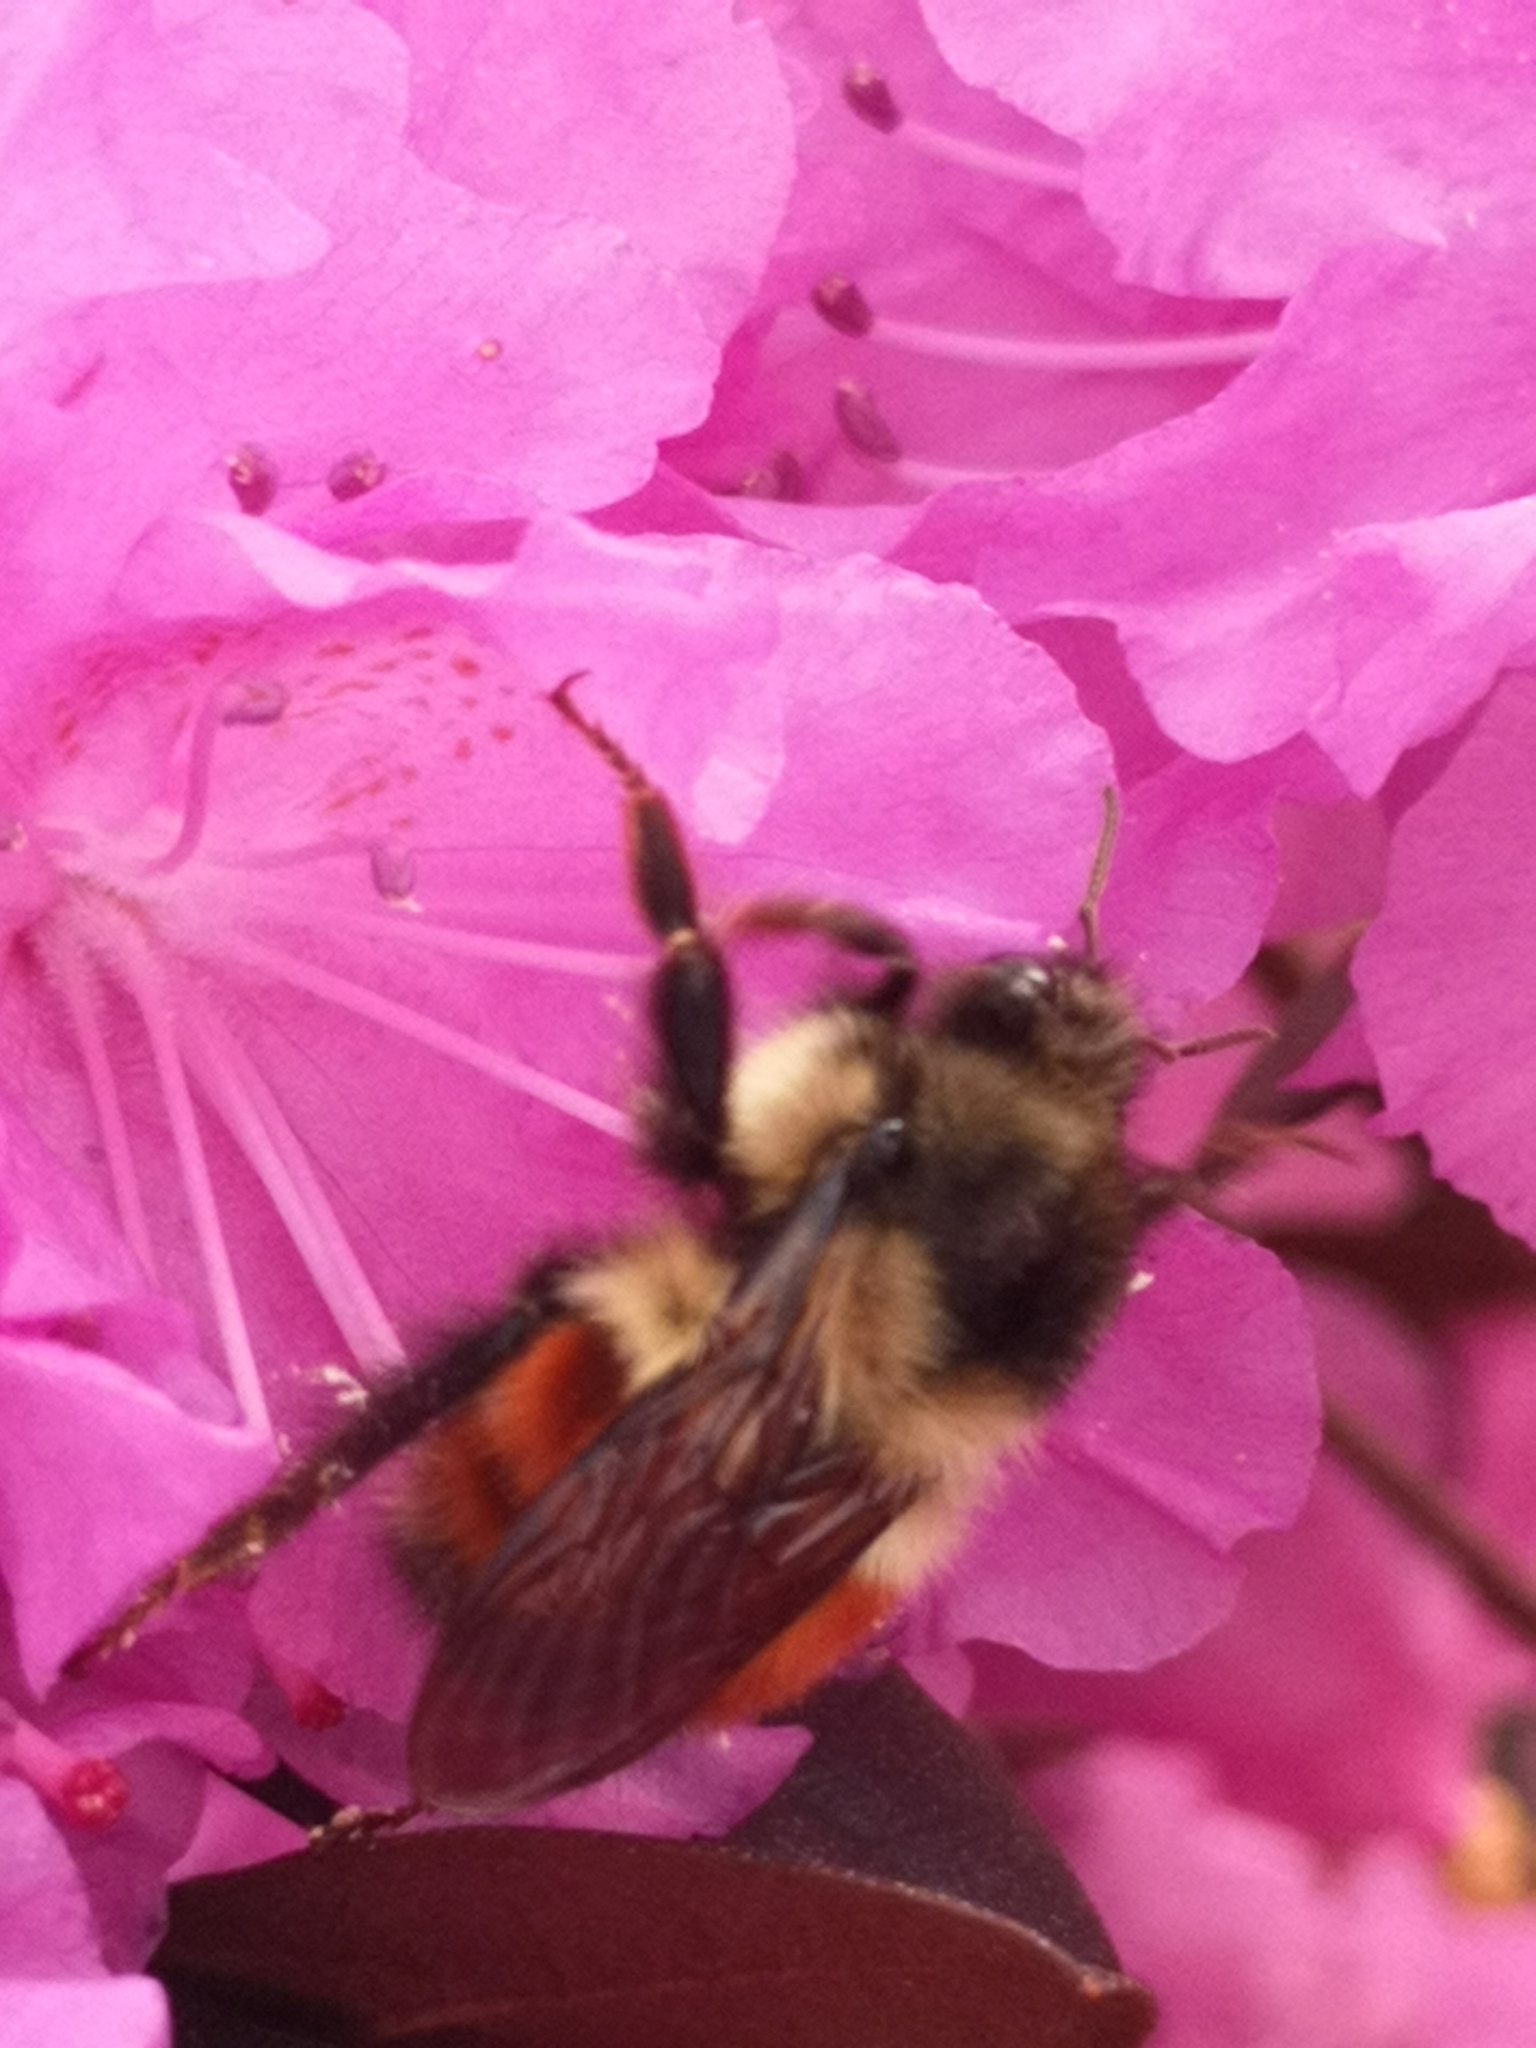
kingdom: Animalia
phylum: Arthropoda
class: Insecta
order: Hymenoptera
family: Apidae
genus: Bombus
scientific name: Bombus melanopygus
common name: Black tail bumble bee
